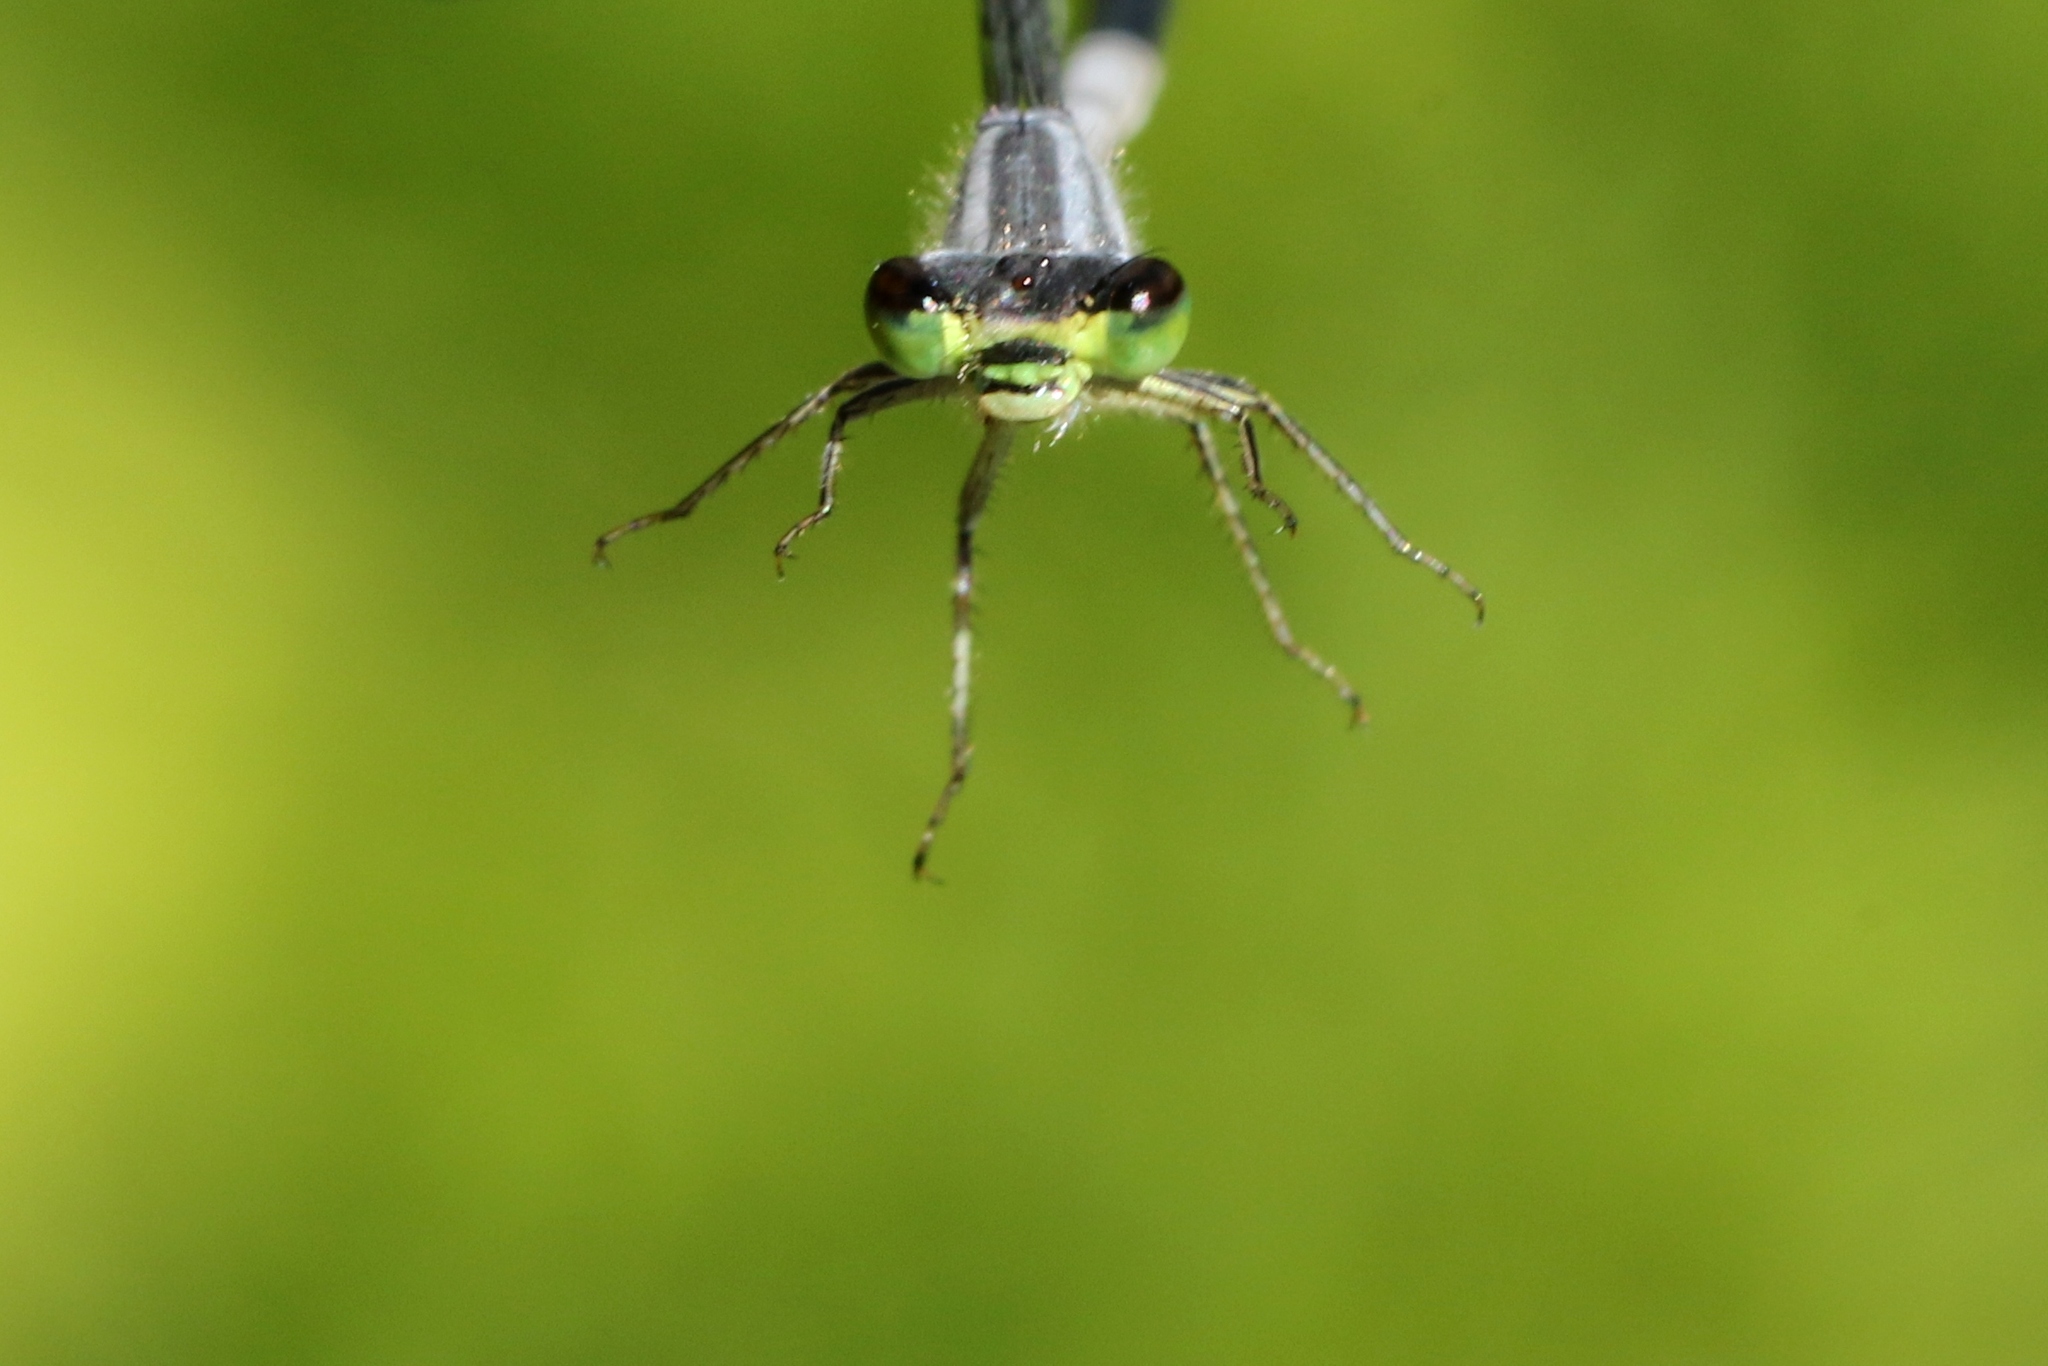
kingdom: Animalia
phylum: Arthropoda
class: Insecta
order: Odonata
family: Coenagrionidae
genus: Ischnura
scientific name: Ischnura verticalis
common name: Eastern forktail
